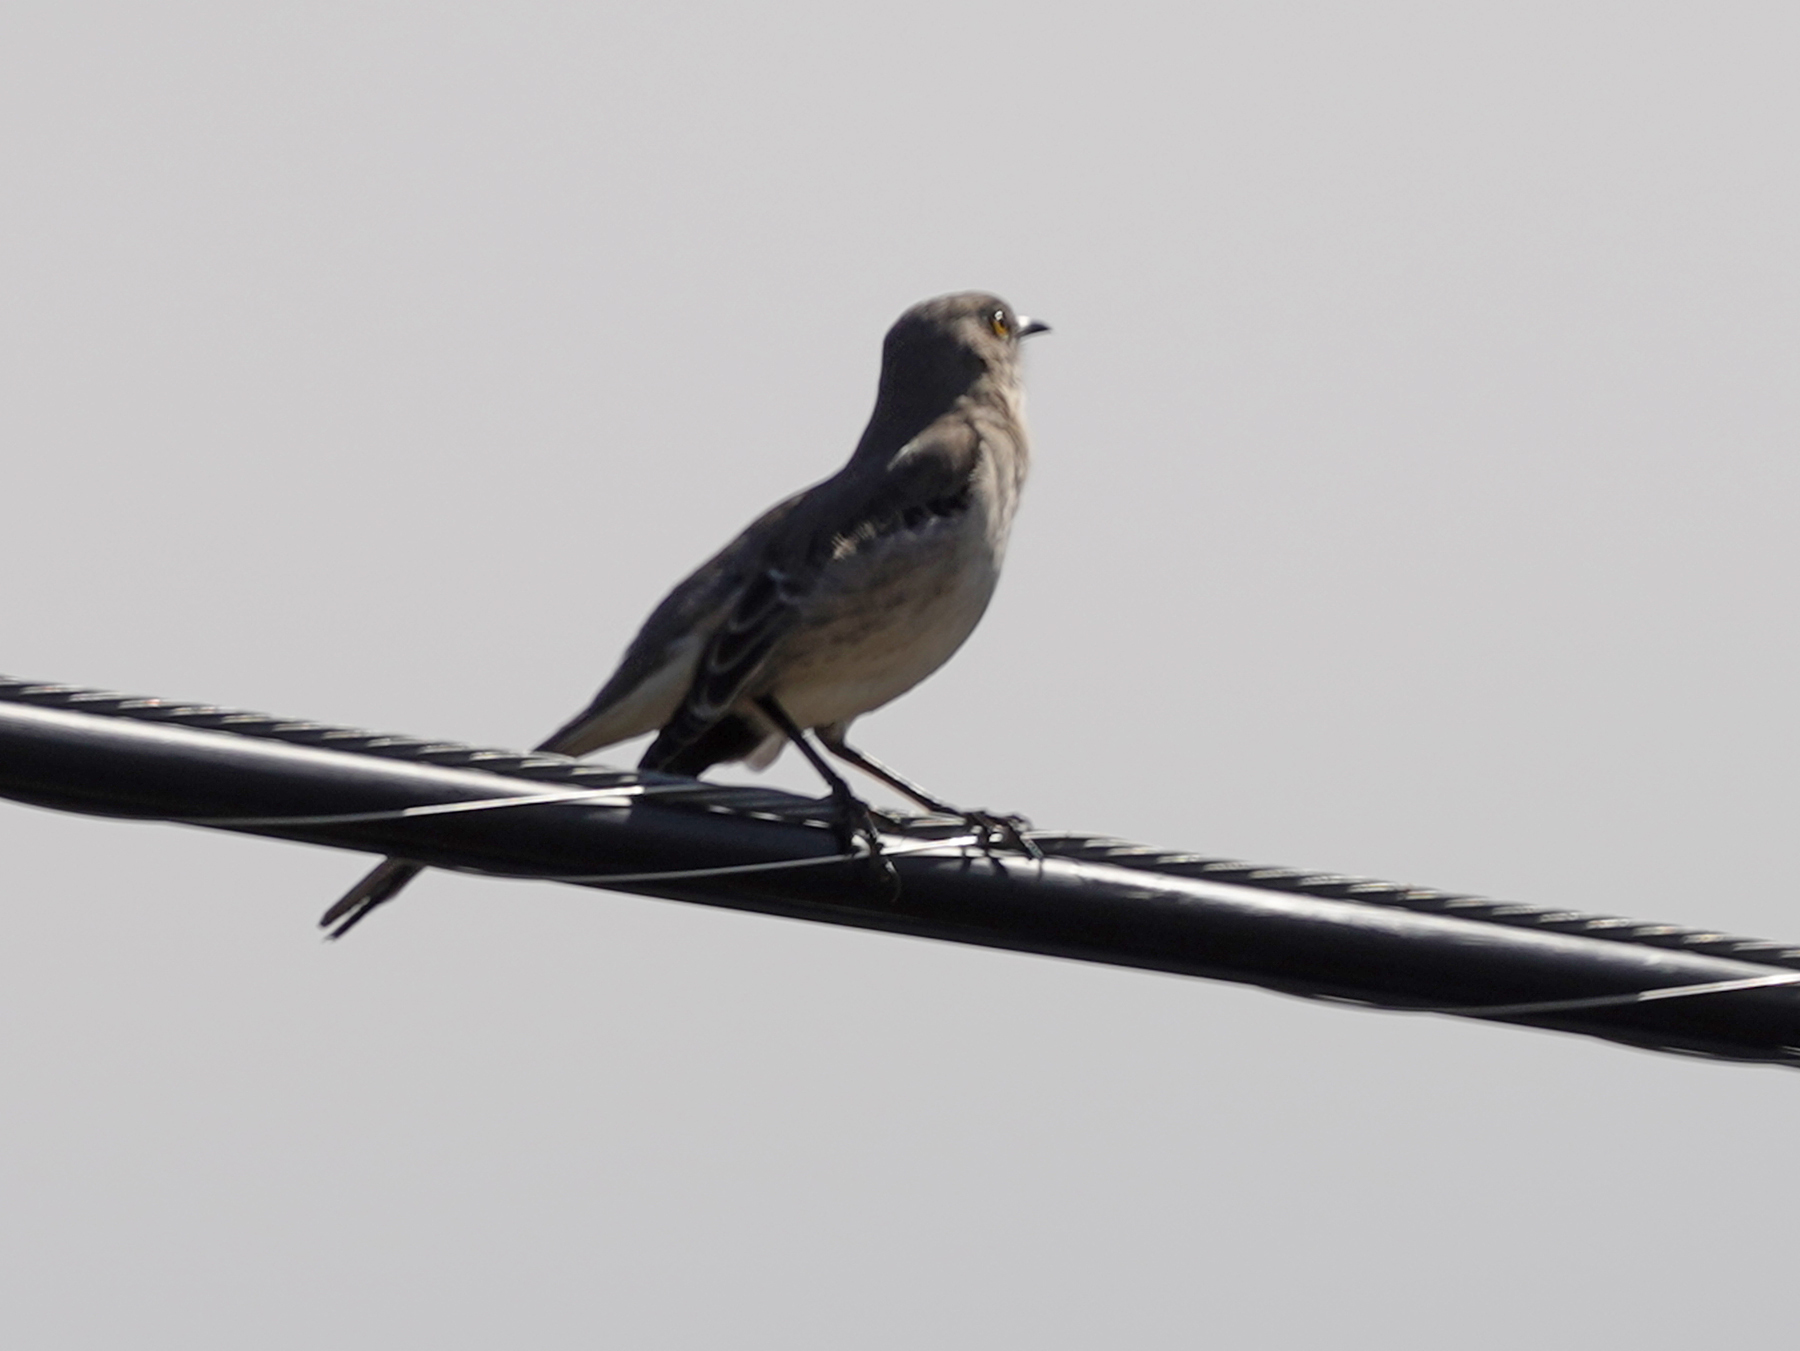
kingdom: Animalia
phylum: Chordata
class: Aves
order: Passeriformes
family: Mimidae
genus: Mimus
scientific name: Mimus polyglottos
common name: Northern mockingbird
